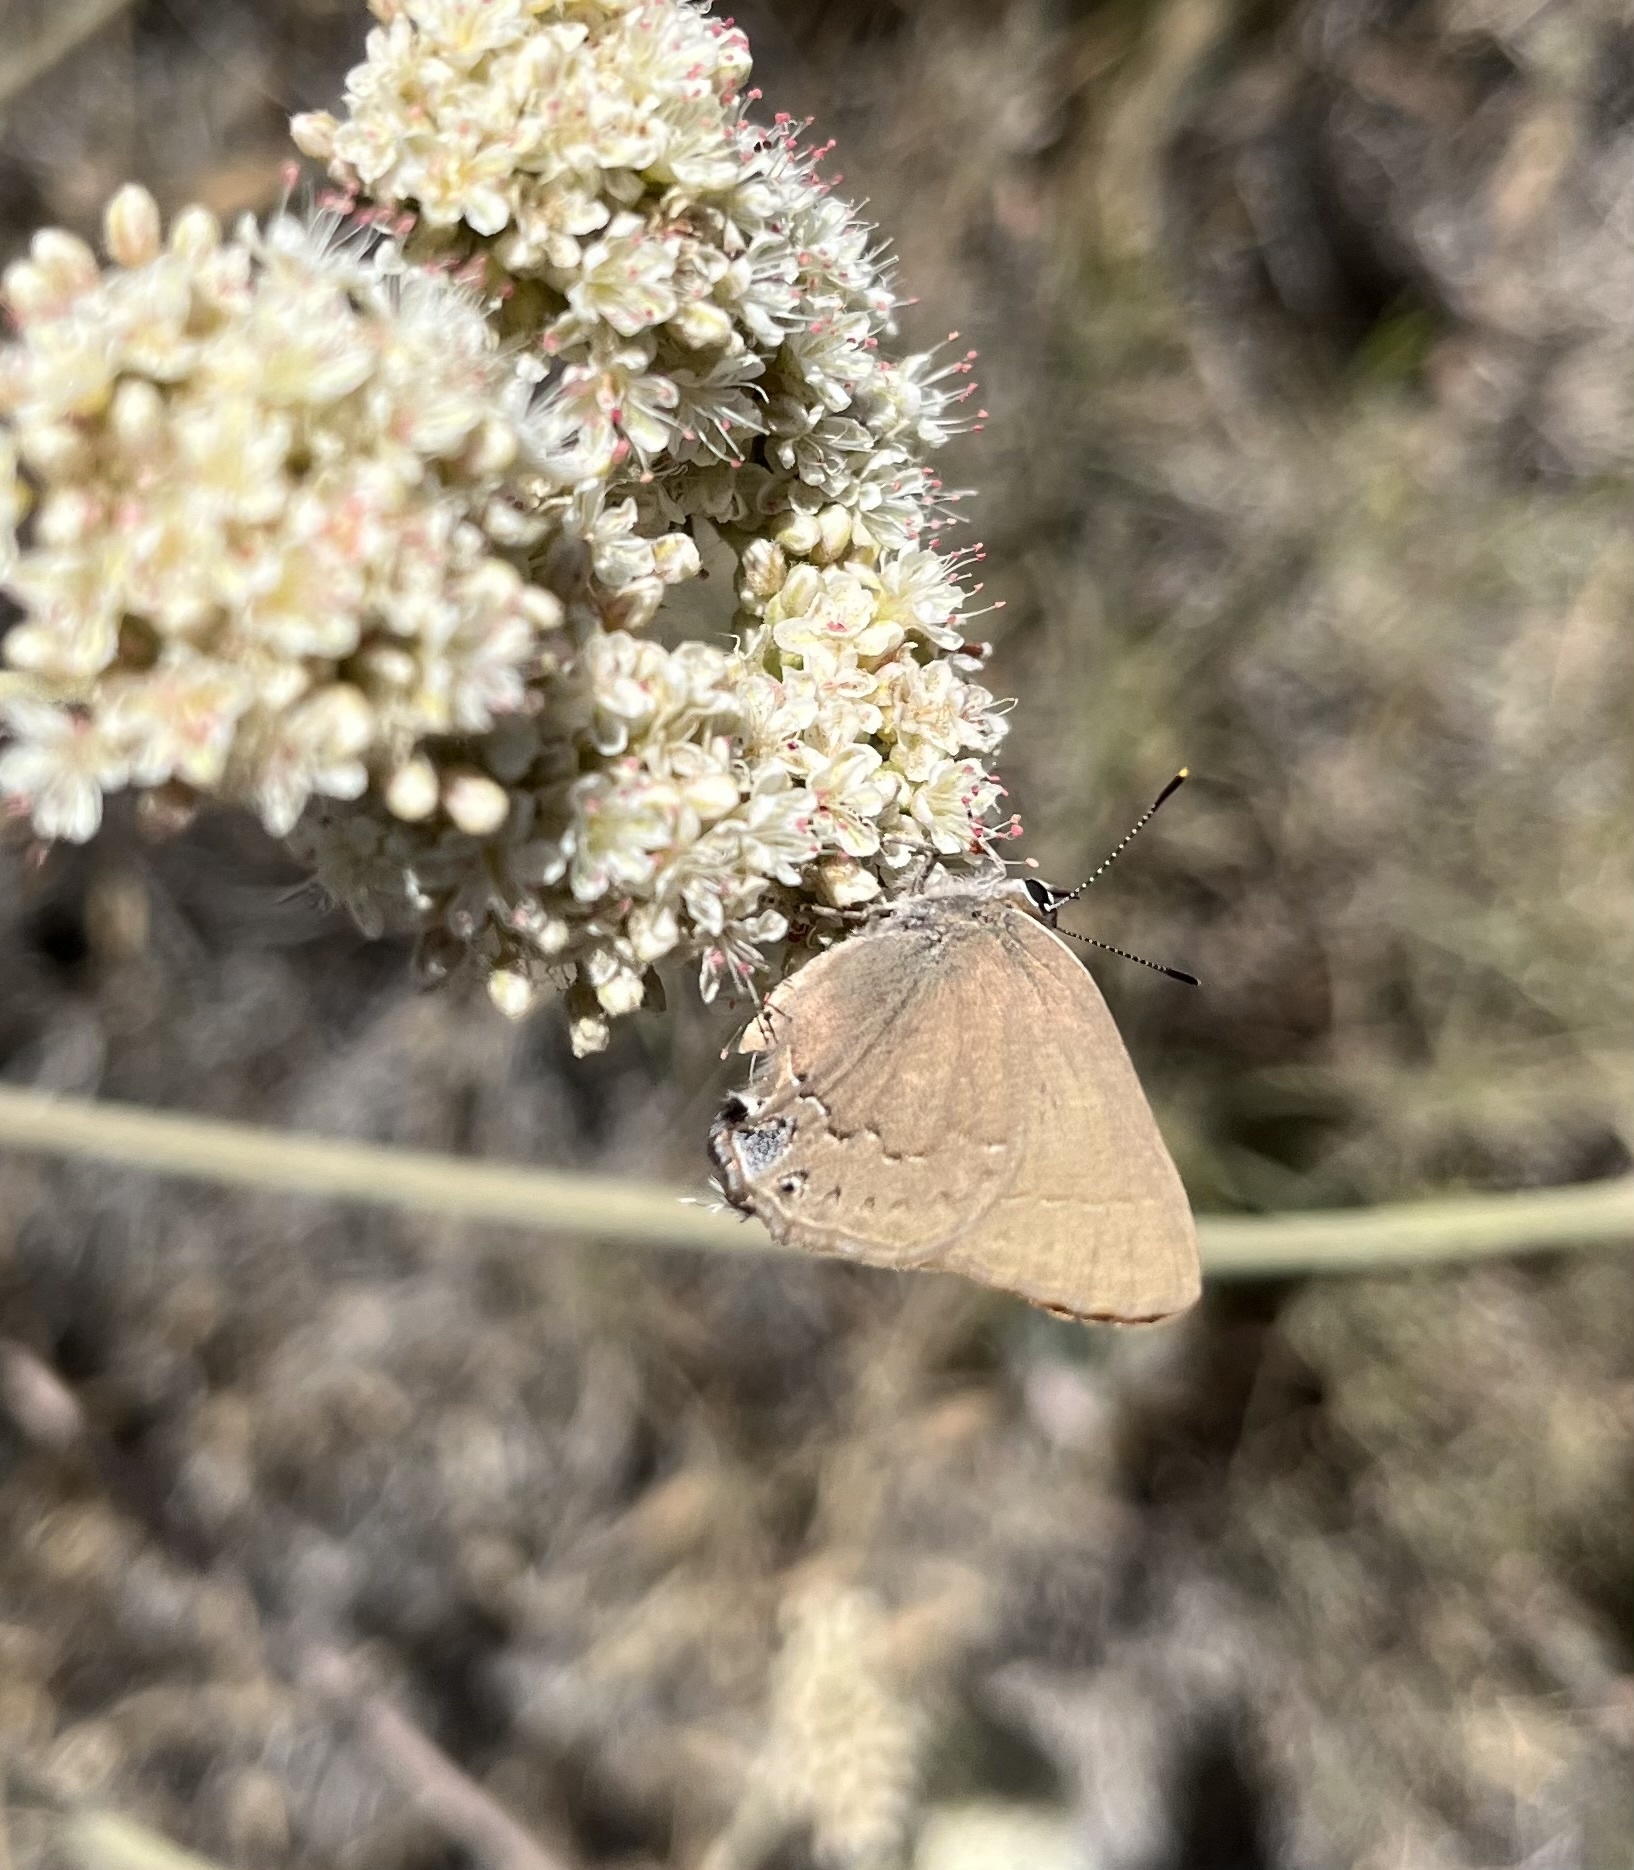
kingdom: Animalia
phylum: Arthropoda
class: Insecta
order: Lepidoptera
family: Lycaenidae
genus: Strymon
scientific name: Strymon saepium
